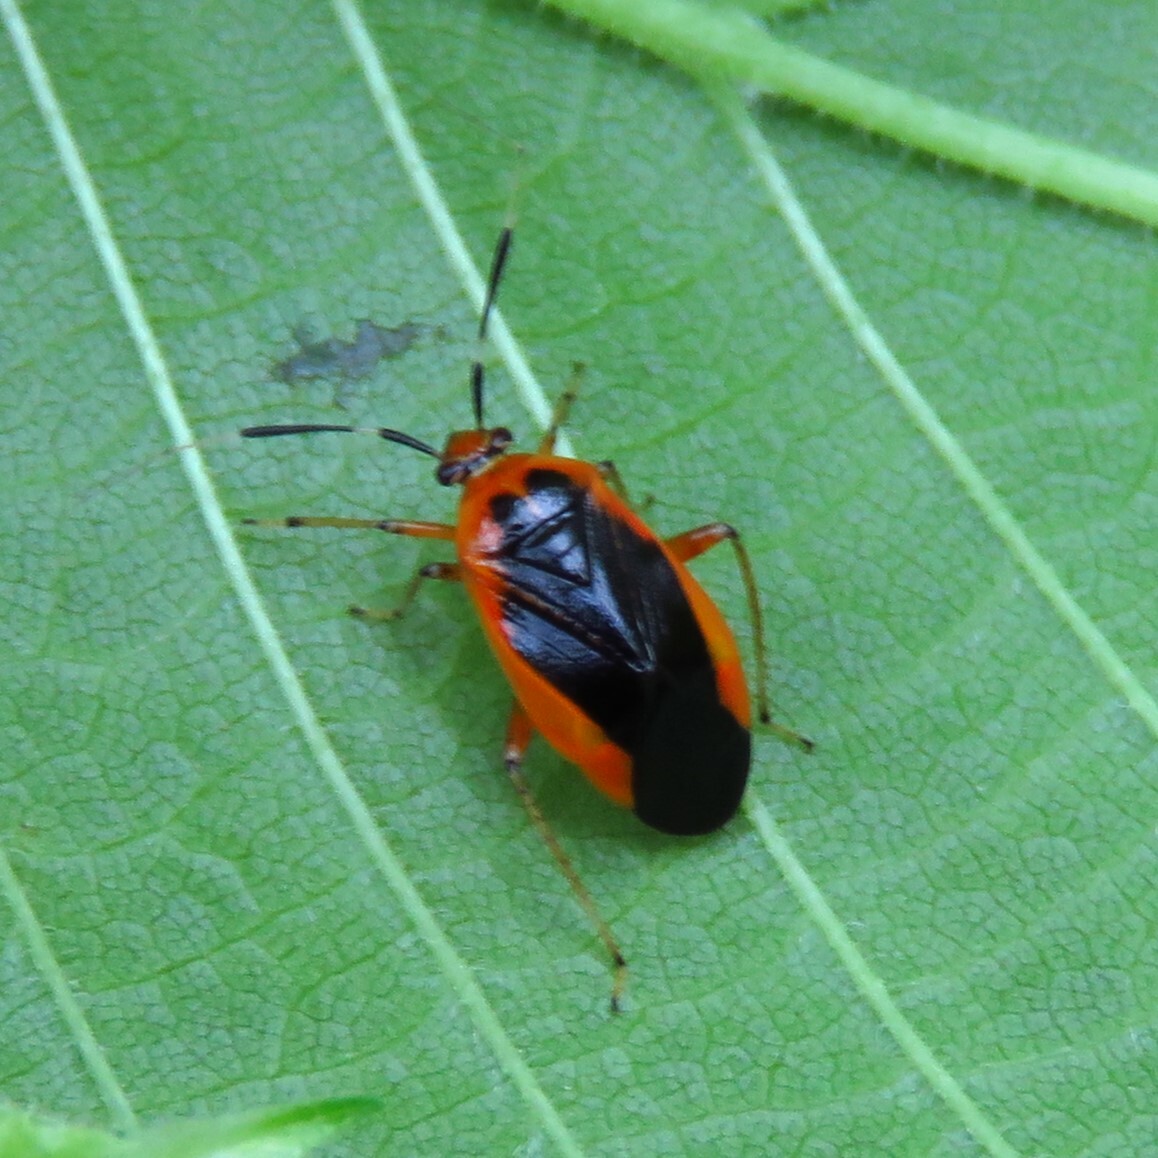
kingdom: Animalia
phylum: Arthropoda
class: Insecta
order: Hemiptera
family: Miridae
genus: Metriorrhynchomiris
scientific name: Metriorrhynchomiris dislocatus
